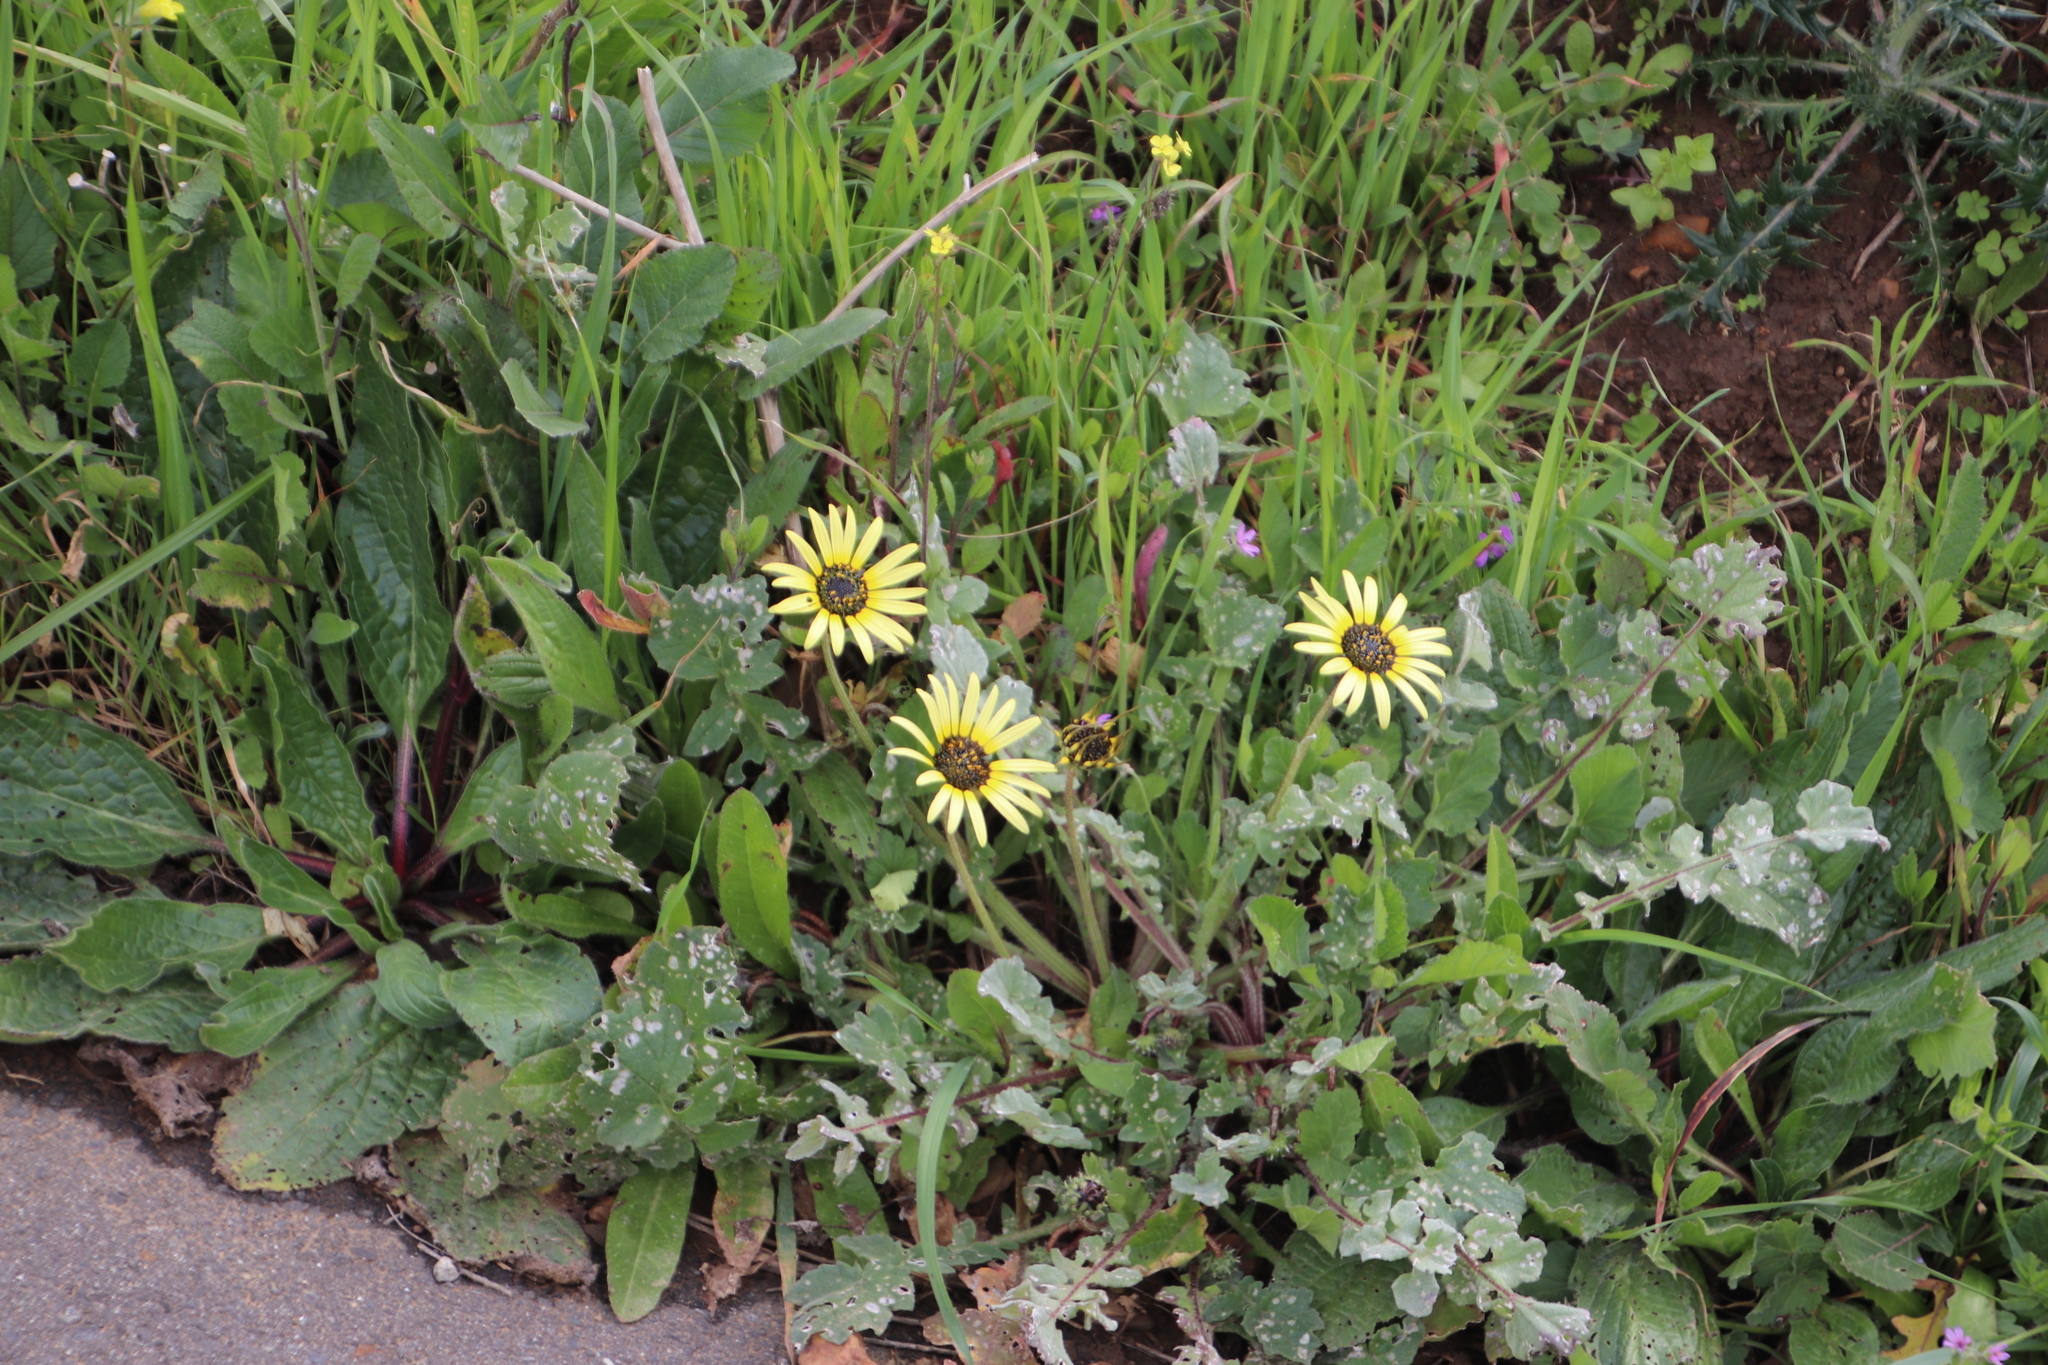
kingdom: Plantae
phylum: Tracheophyta
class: Magnoliopsida
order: Asterales
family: Asteraceae
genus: Arctotheca
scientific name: Arctotheca calendula
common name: Capeweed
